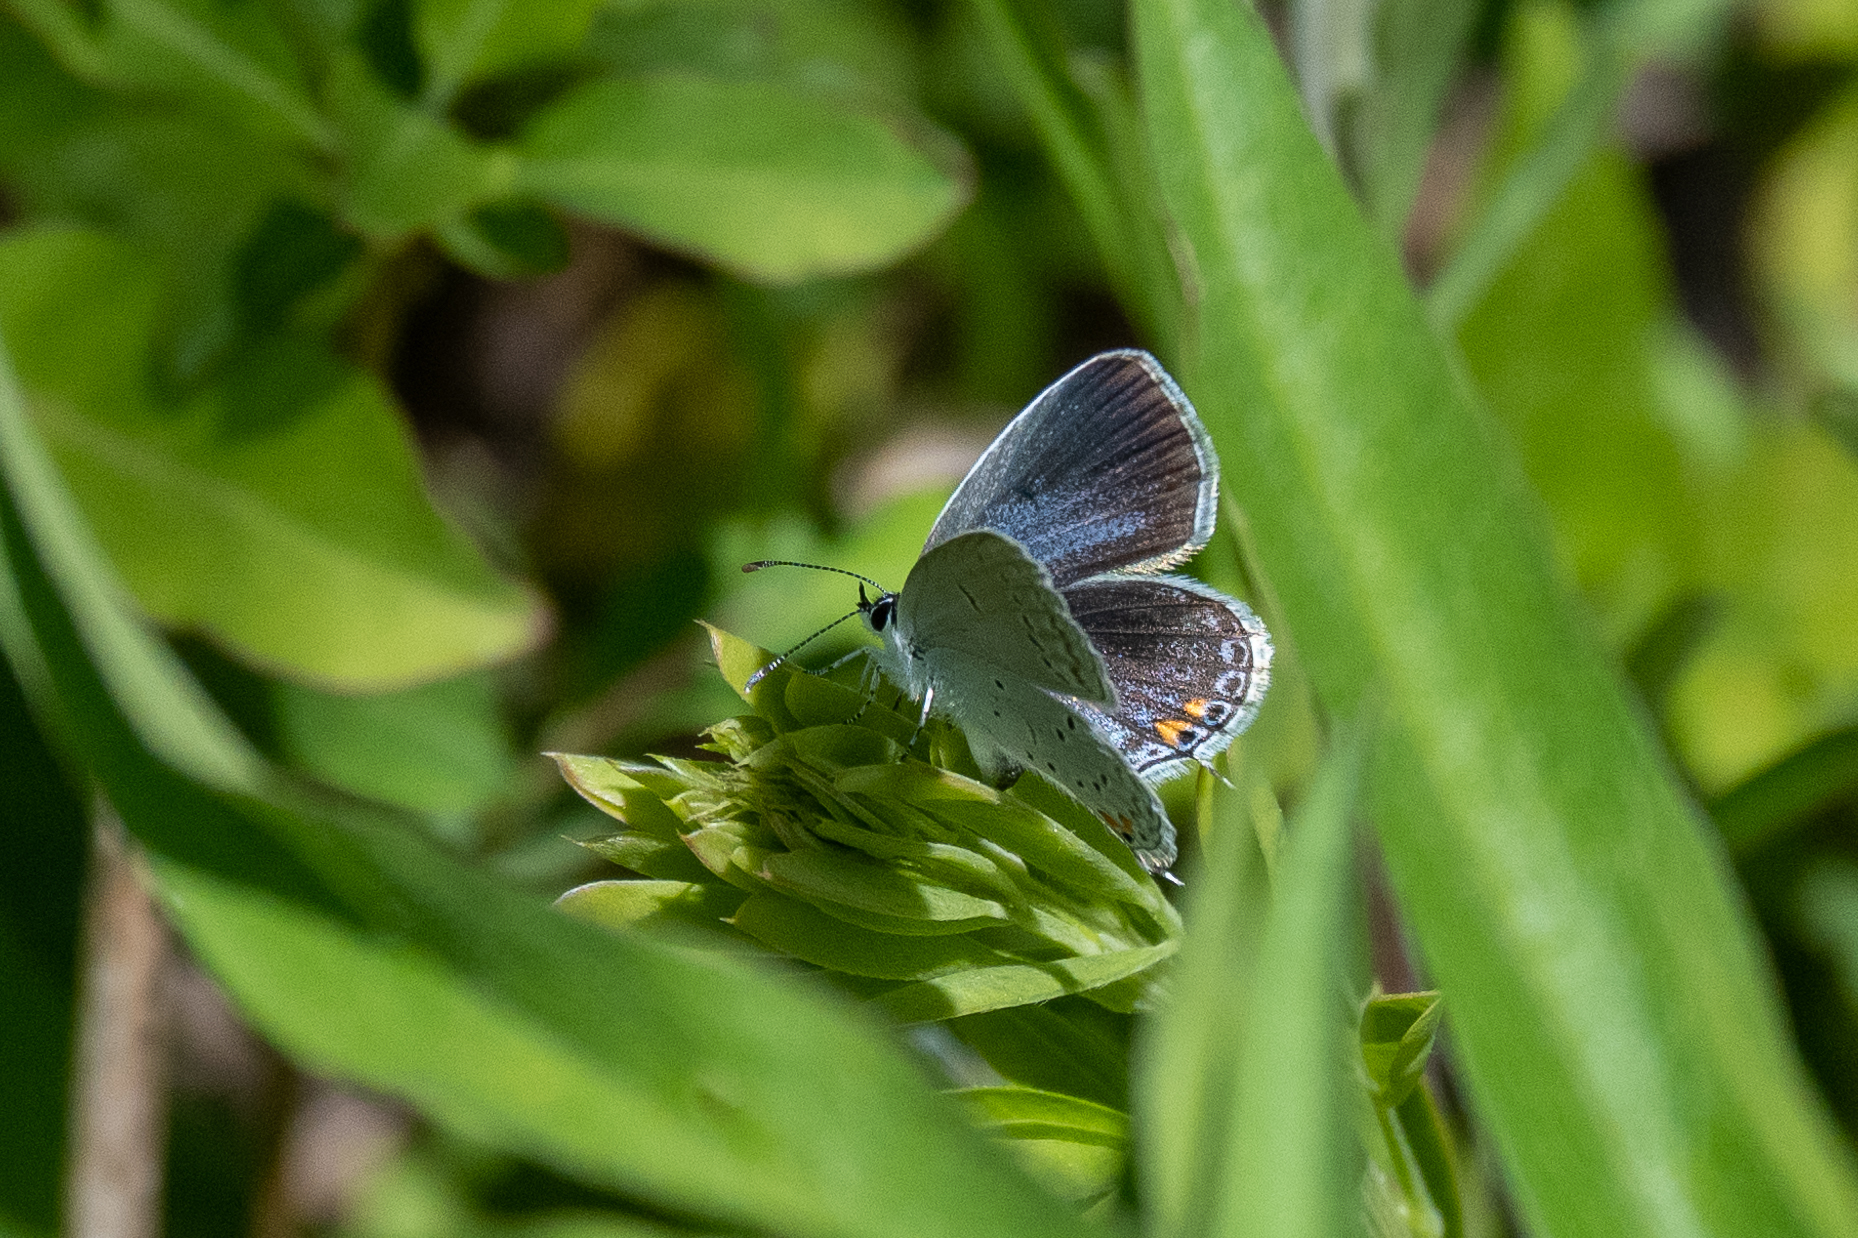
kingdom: Animalia
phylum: Arthropoda
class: Insecta
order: Lepidoptera
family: Lycaenidae
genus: Elkalyce
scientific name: Elkalyce comyntas
